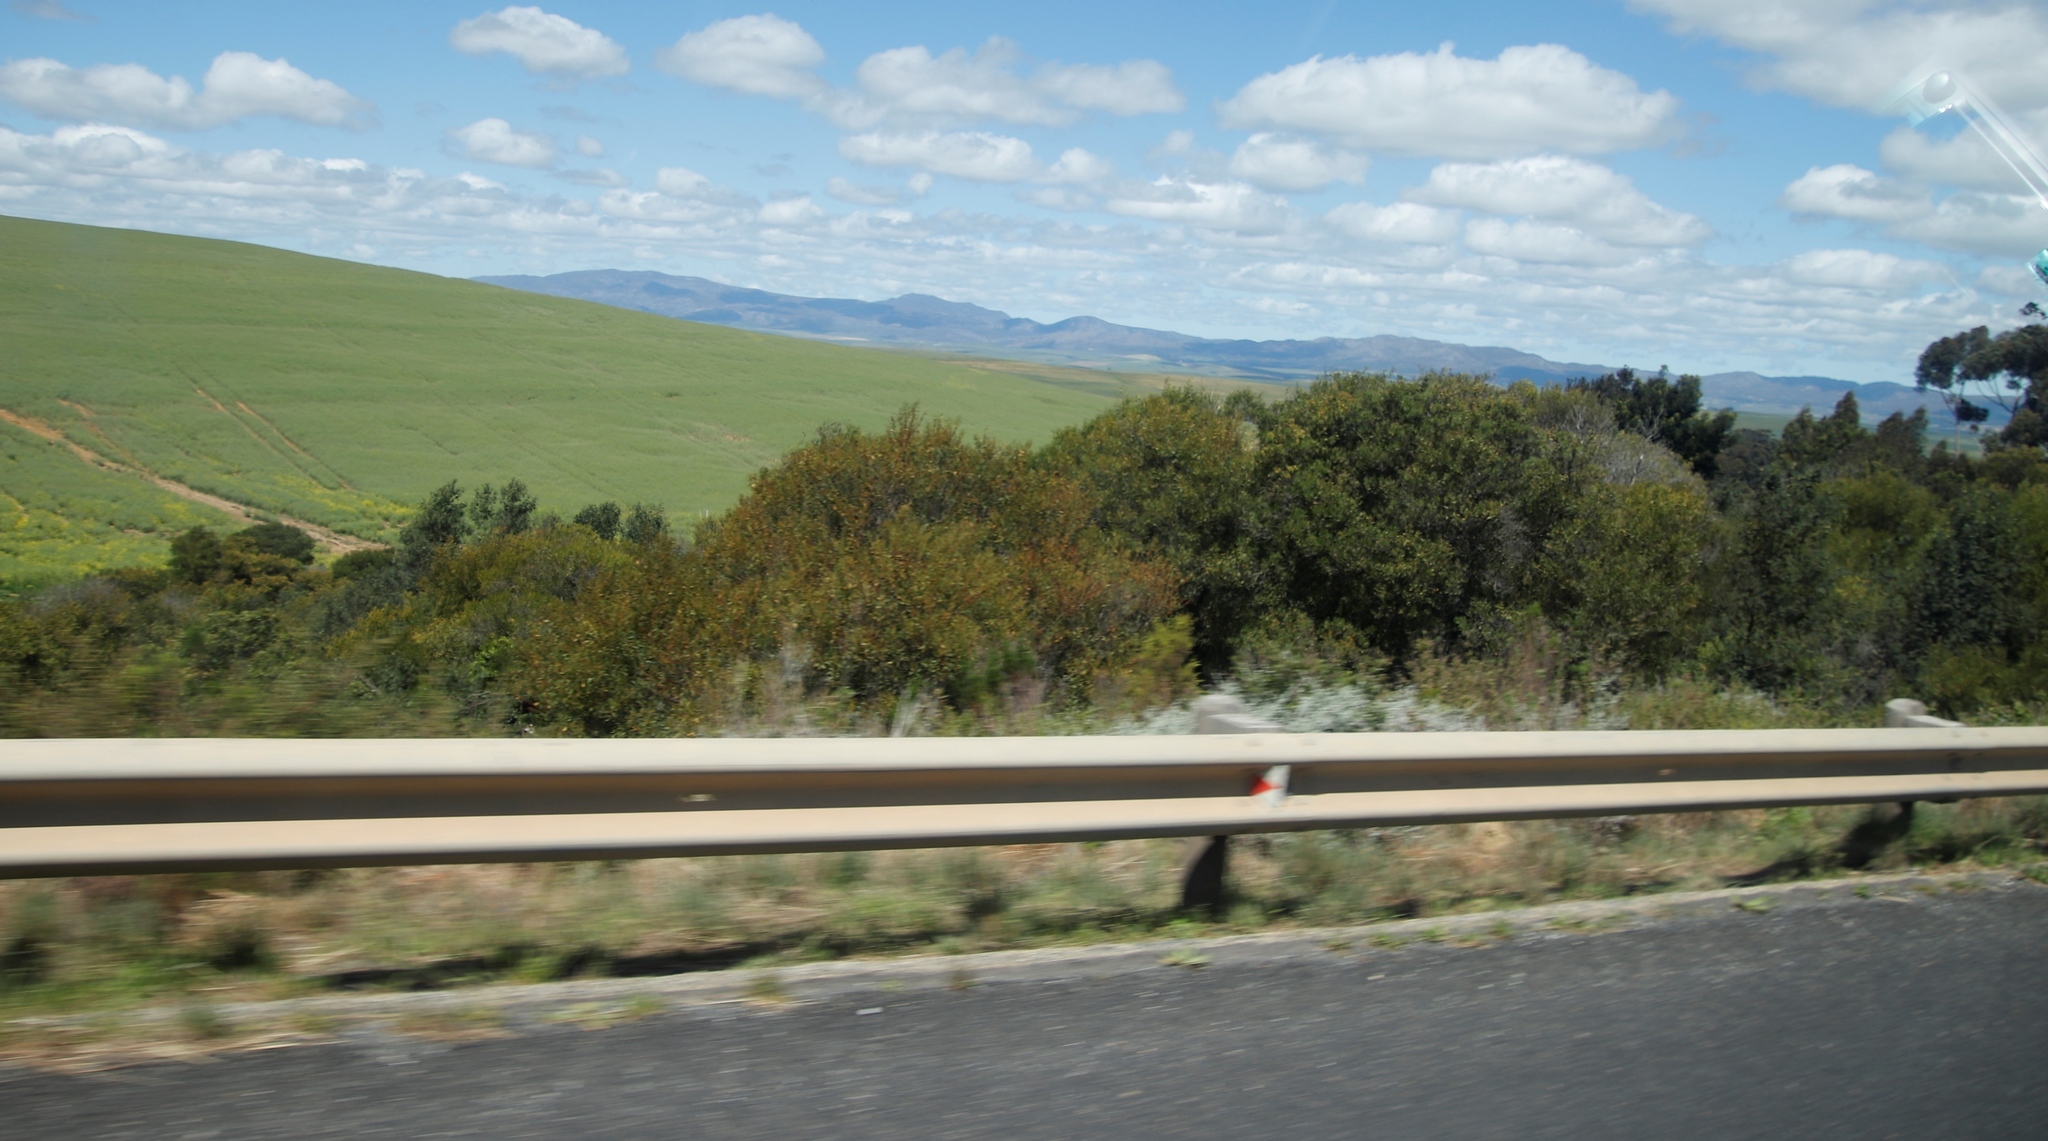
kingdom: Plantae
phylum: Tracheophyta
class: Magnoliopsida
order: Fabales
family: Fabaceae
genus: Acacia
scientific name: Acacia longifolia
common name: Sydney golden wattle
